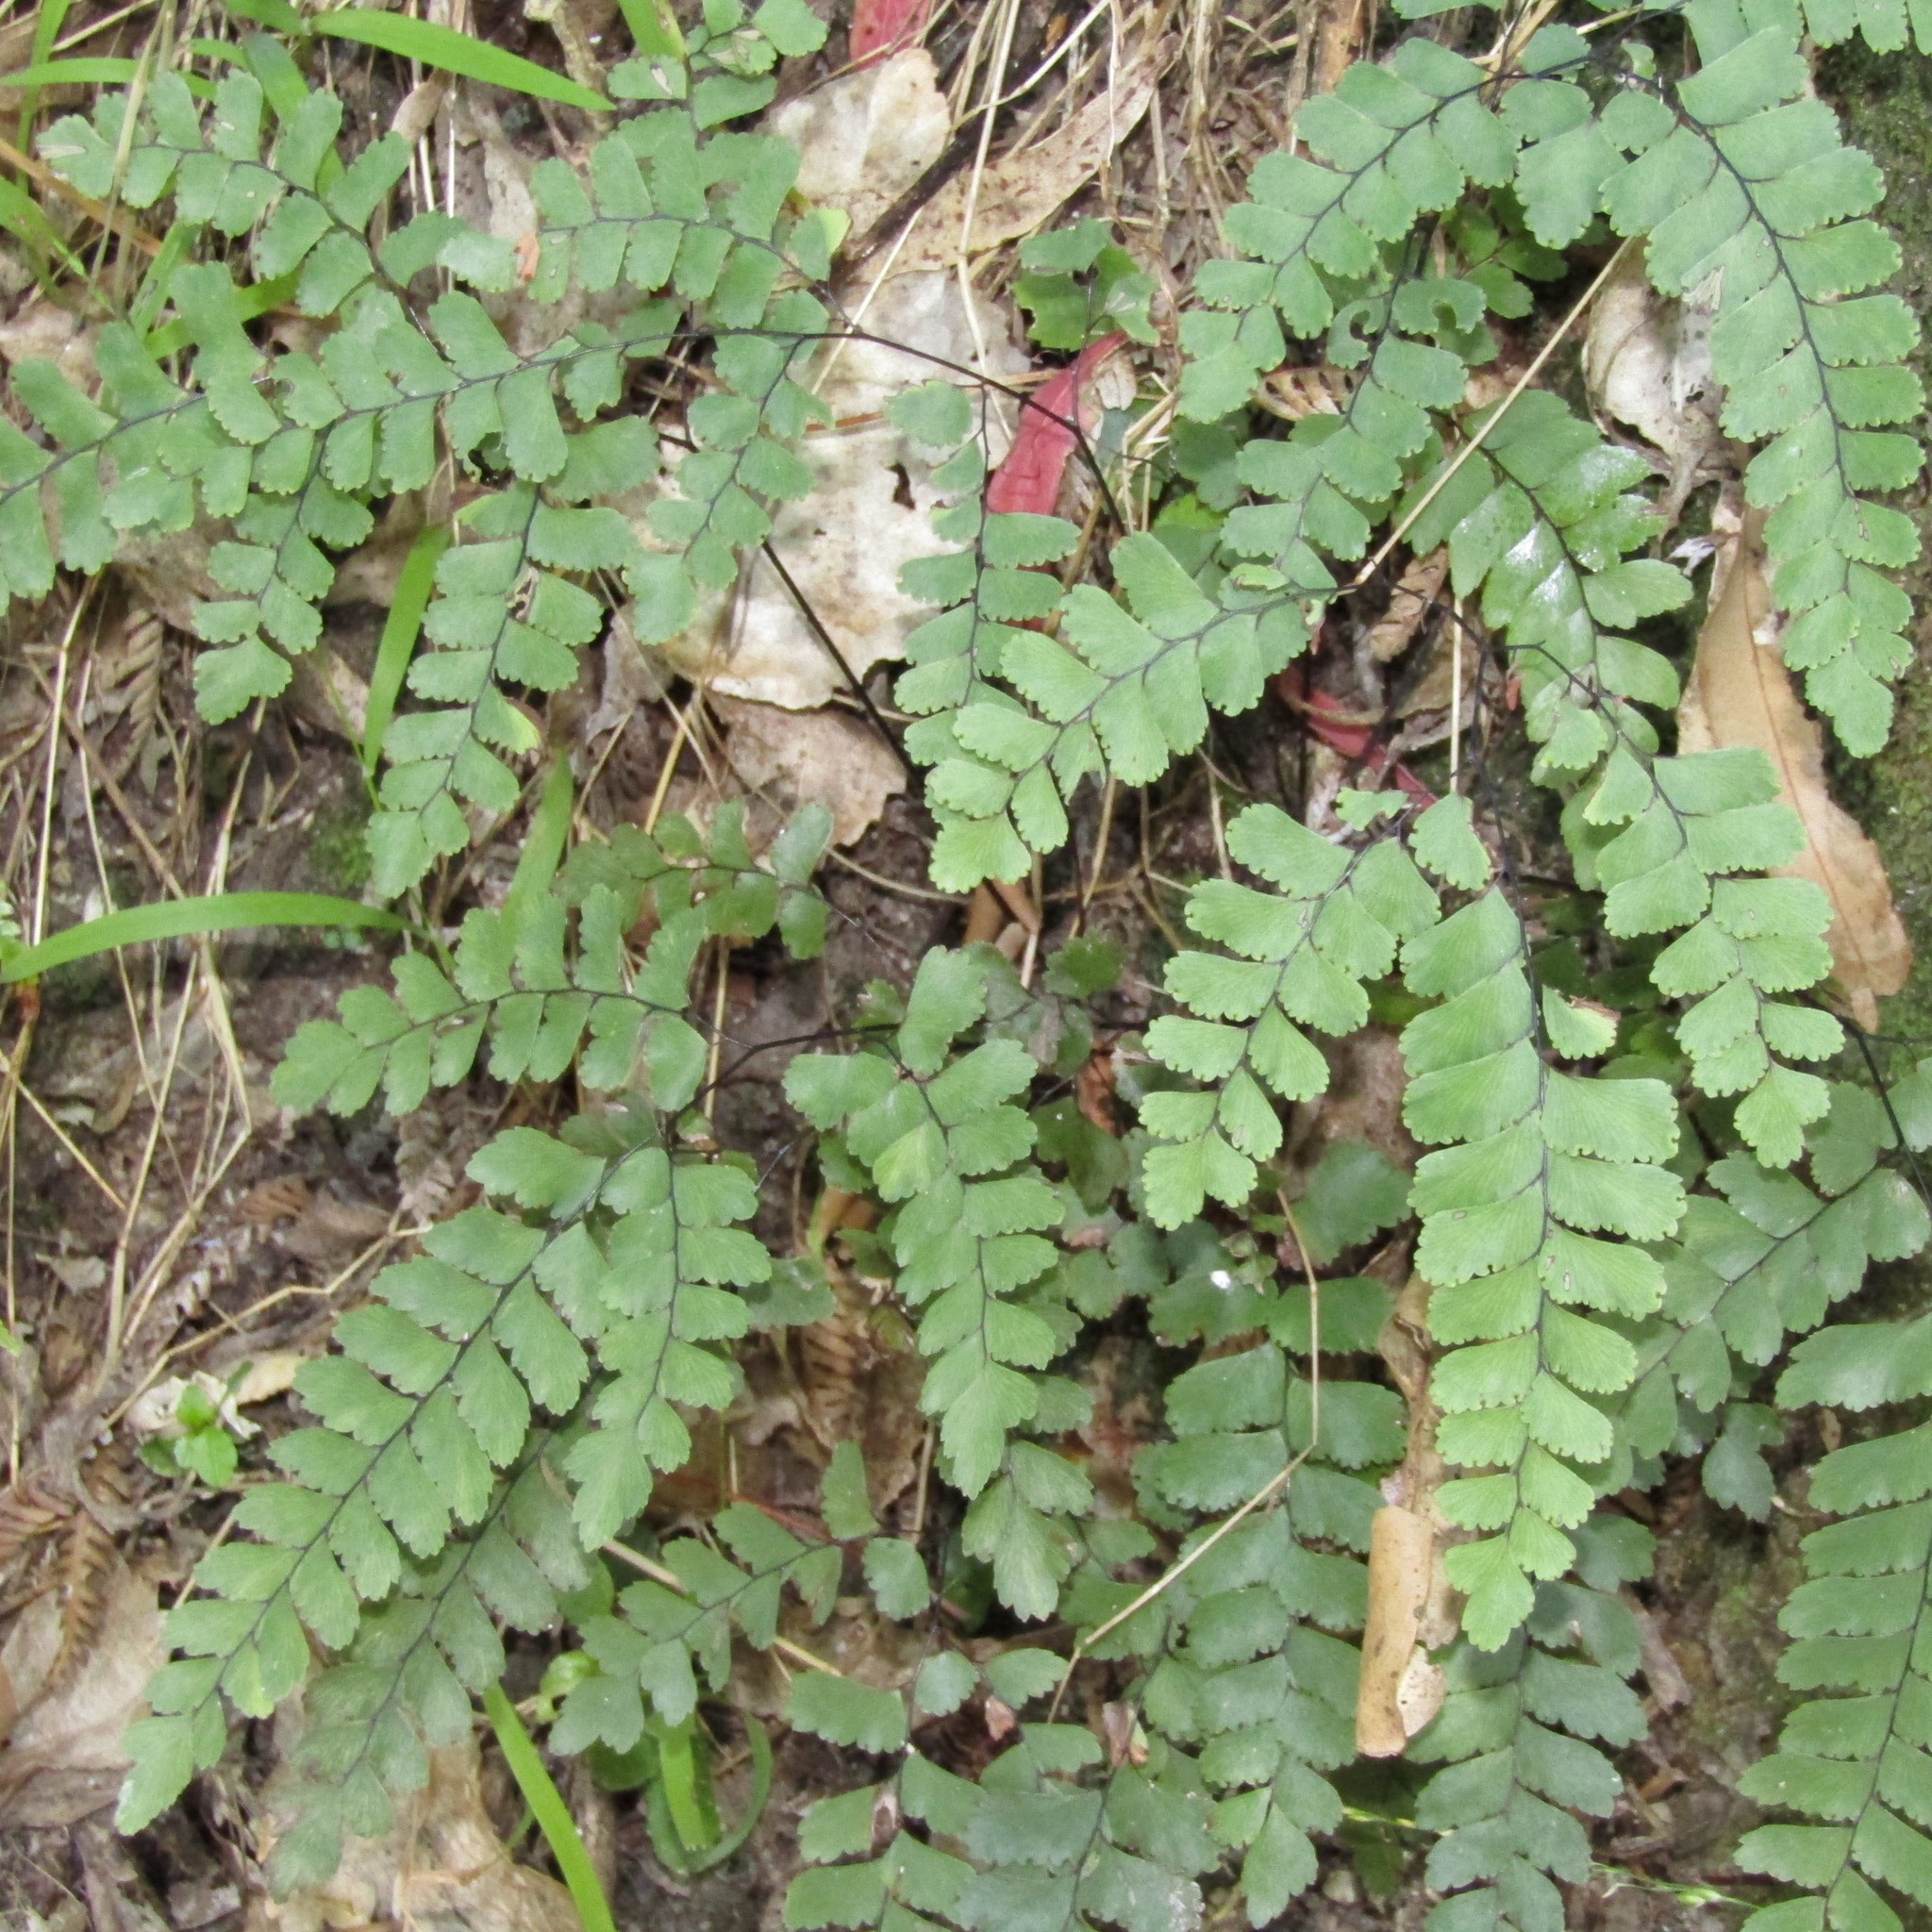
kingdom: Plantae
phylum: Tracheophyta
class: Polypodiopsida
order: Polypodiales
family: Pteridaceae
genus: Adiantum
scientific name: Adiantum cunninghamii
